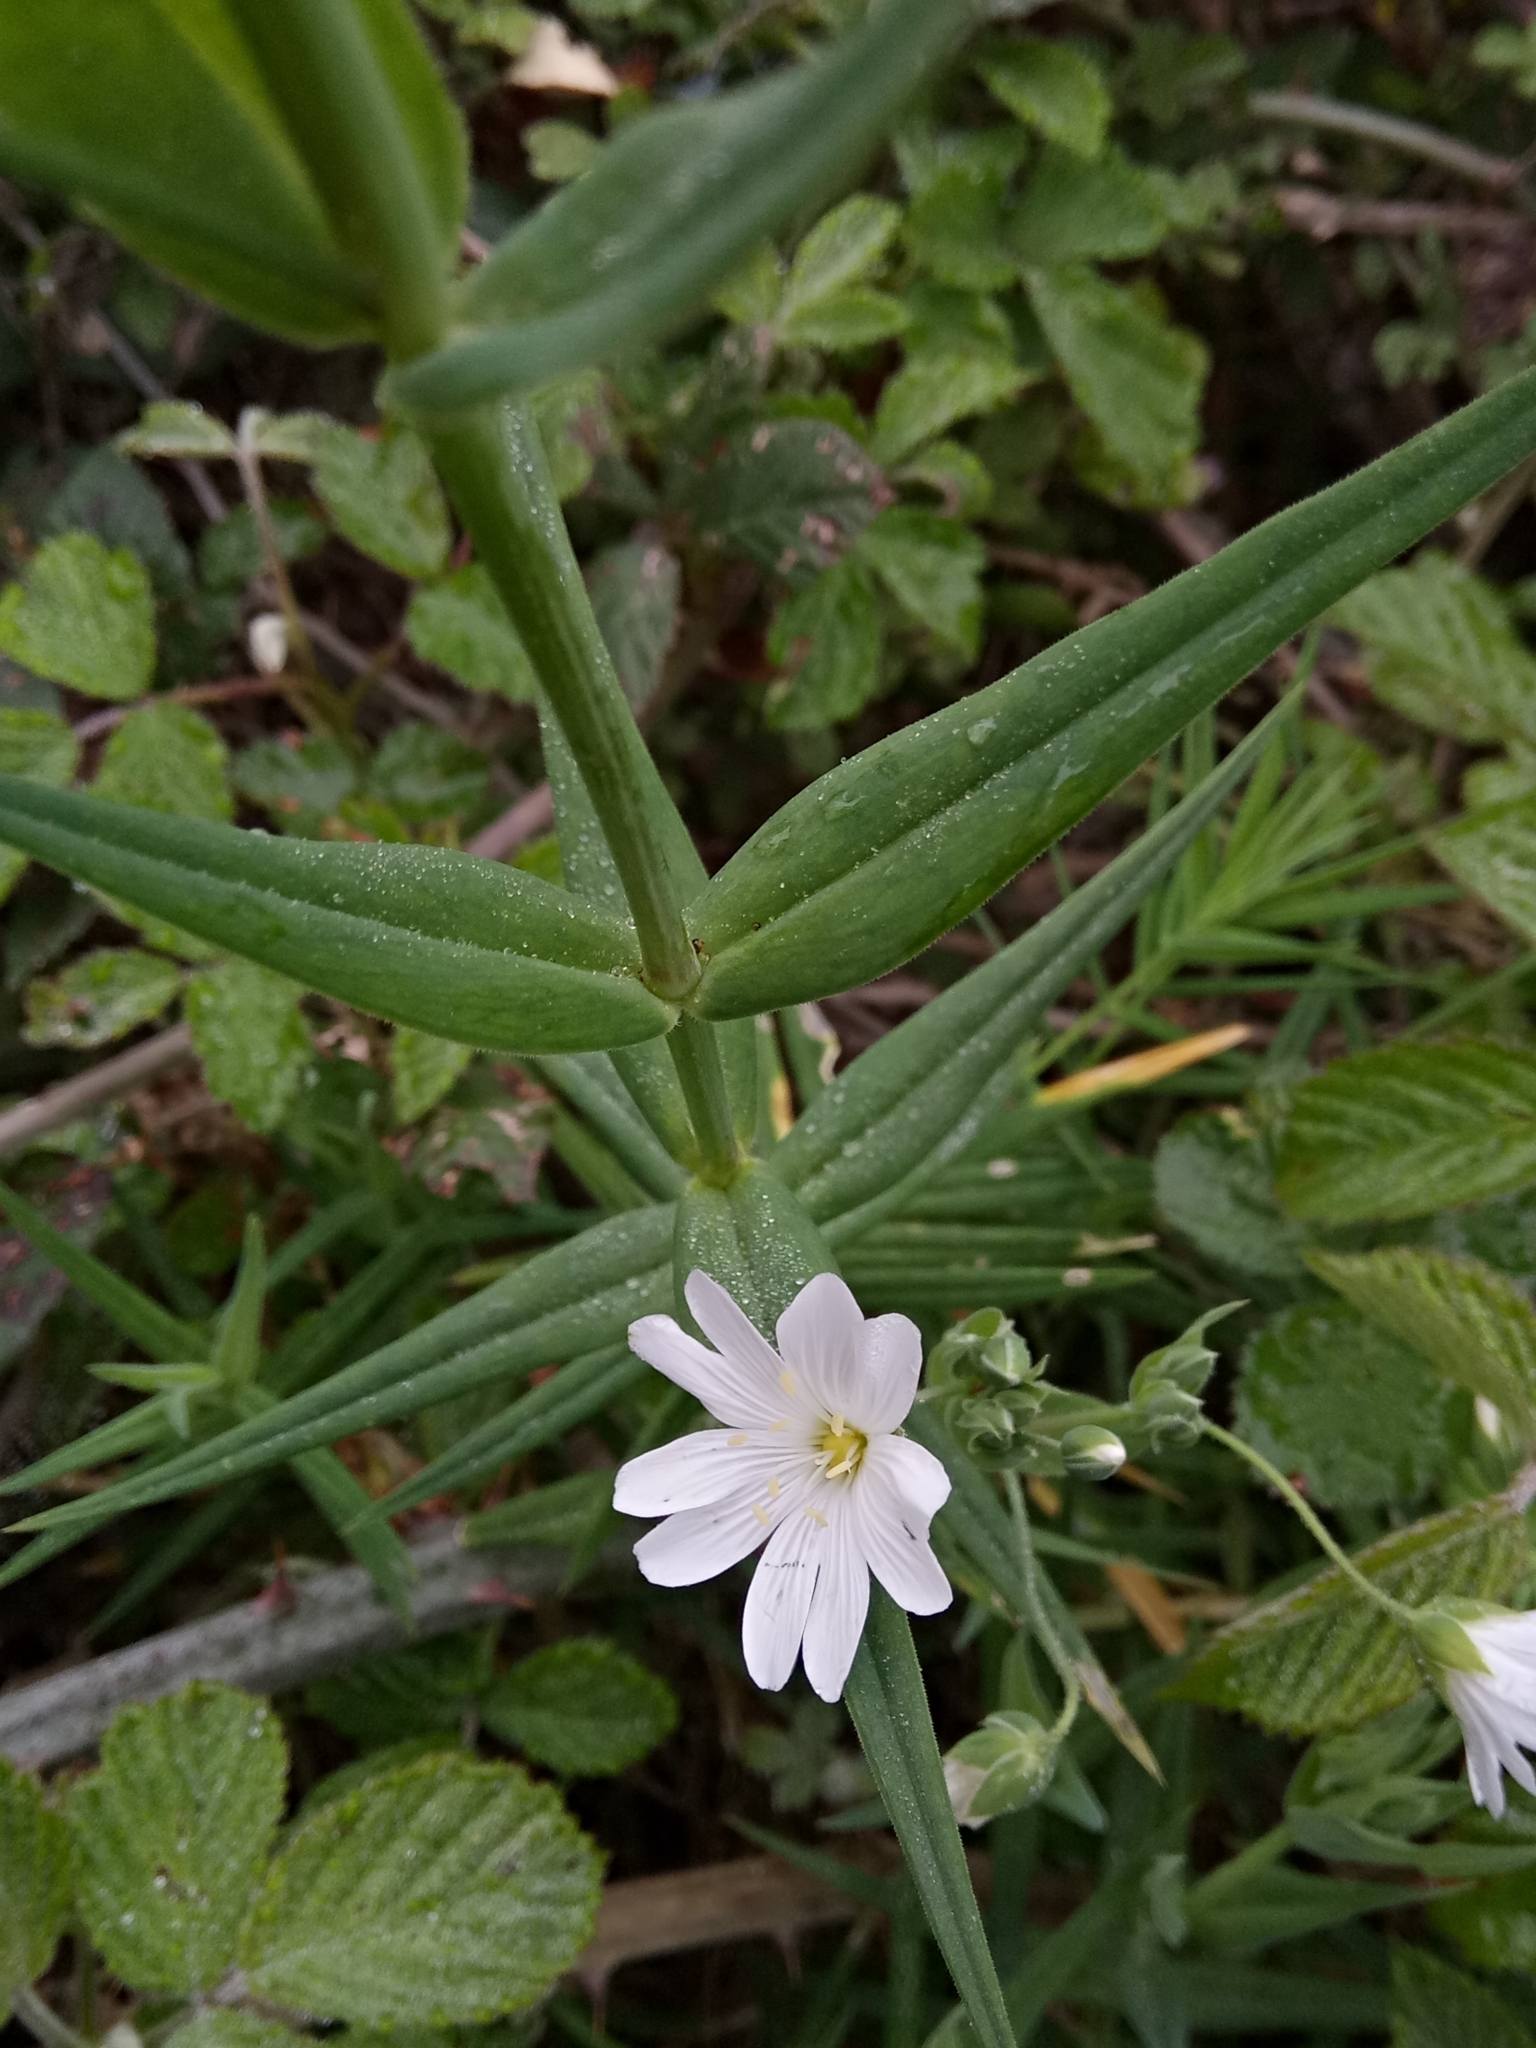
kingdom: Plantae
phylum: Tracheophyta
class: Magnoliopsida
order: Caryophyllales
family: Caryophyllaceae
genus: Rabelera
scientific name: Rabelera holostea
